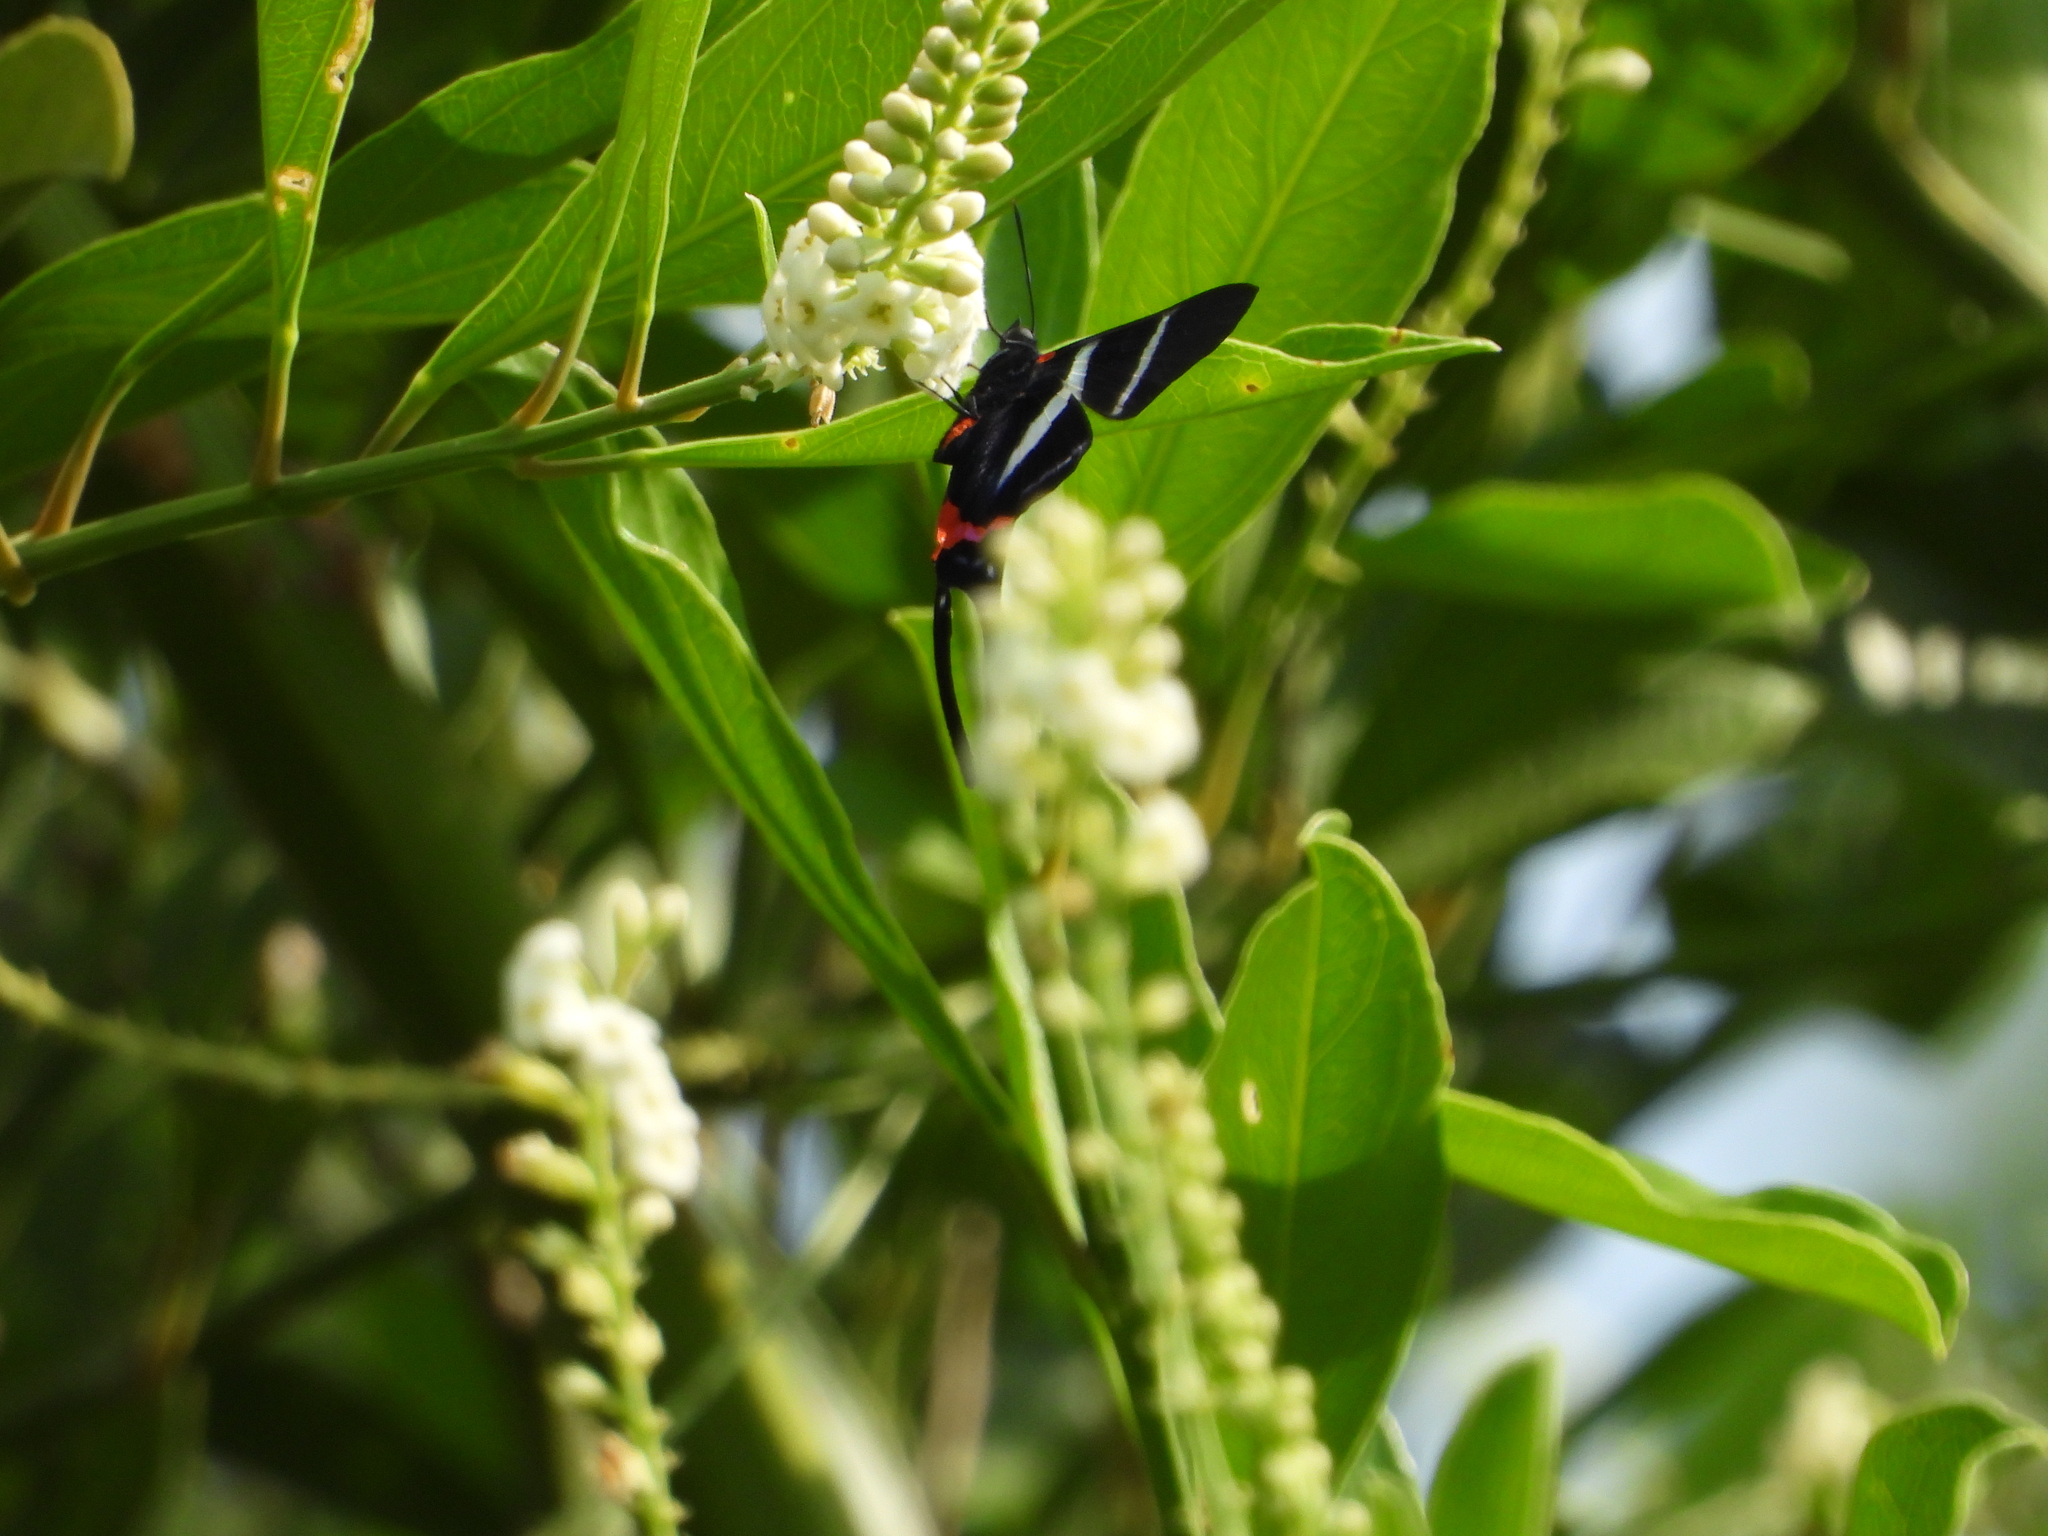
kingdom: Animalia
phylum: Arthropoda
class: Insecta
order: Lepidoptera
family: Erebidae
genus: Phaloesia
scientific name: Phaloesia saucia
